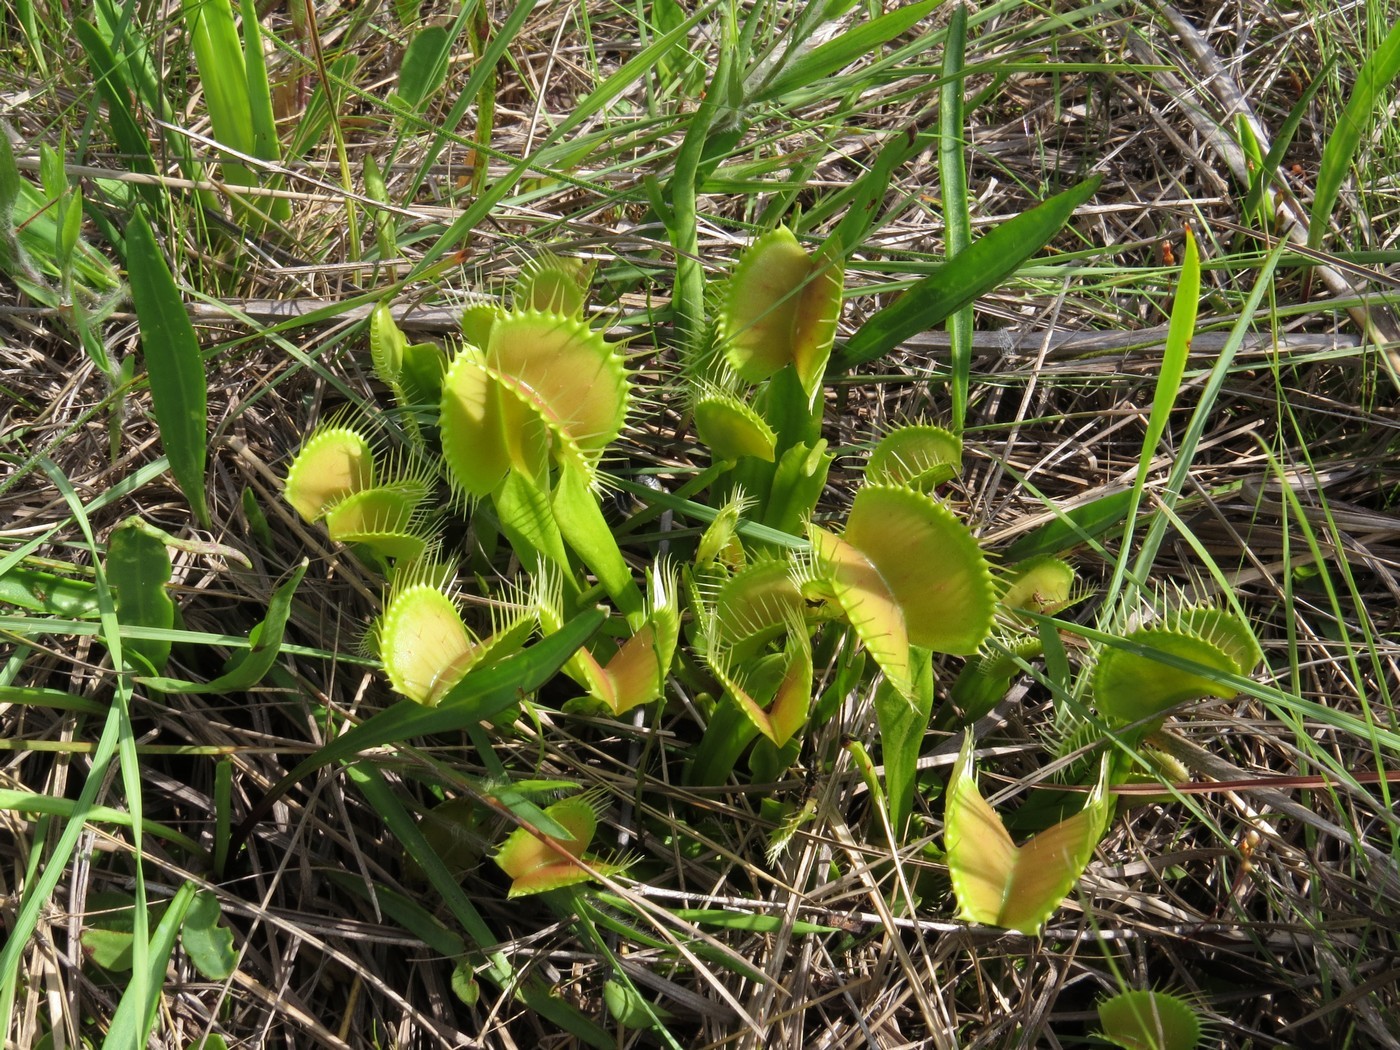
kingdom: Plantae
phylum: Tracheophyta
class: Magnoliopsida
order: Caryophyllales
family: Droseraceae
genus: Dionaea
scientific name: Dionaea muscipula
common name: Venus flytrap
